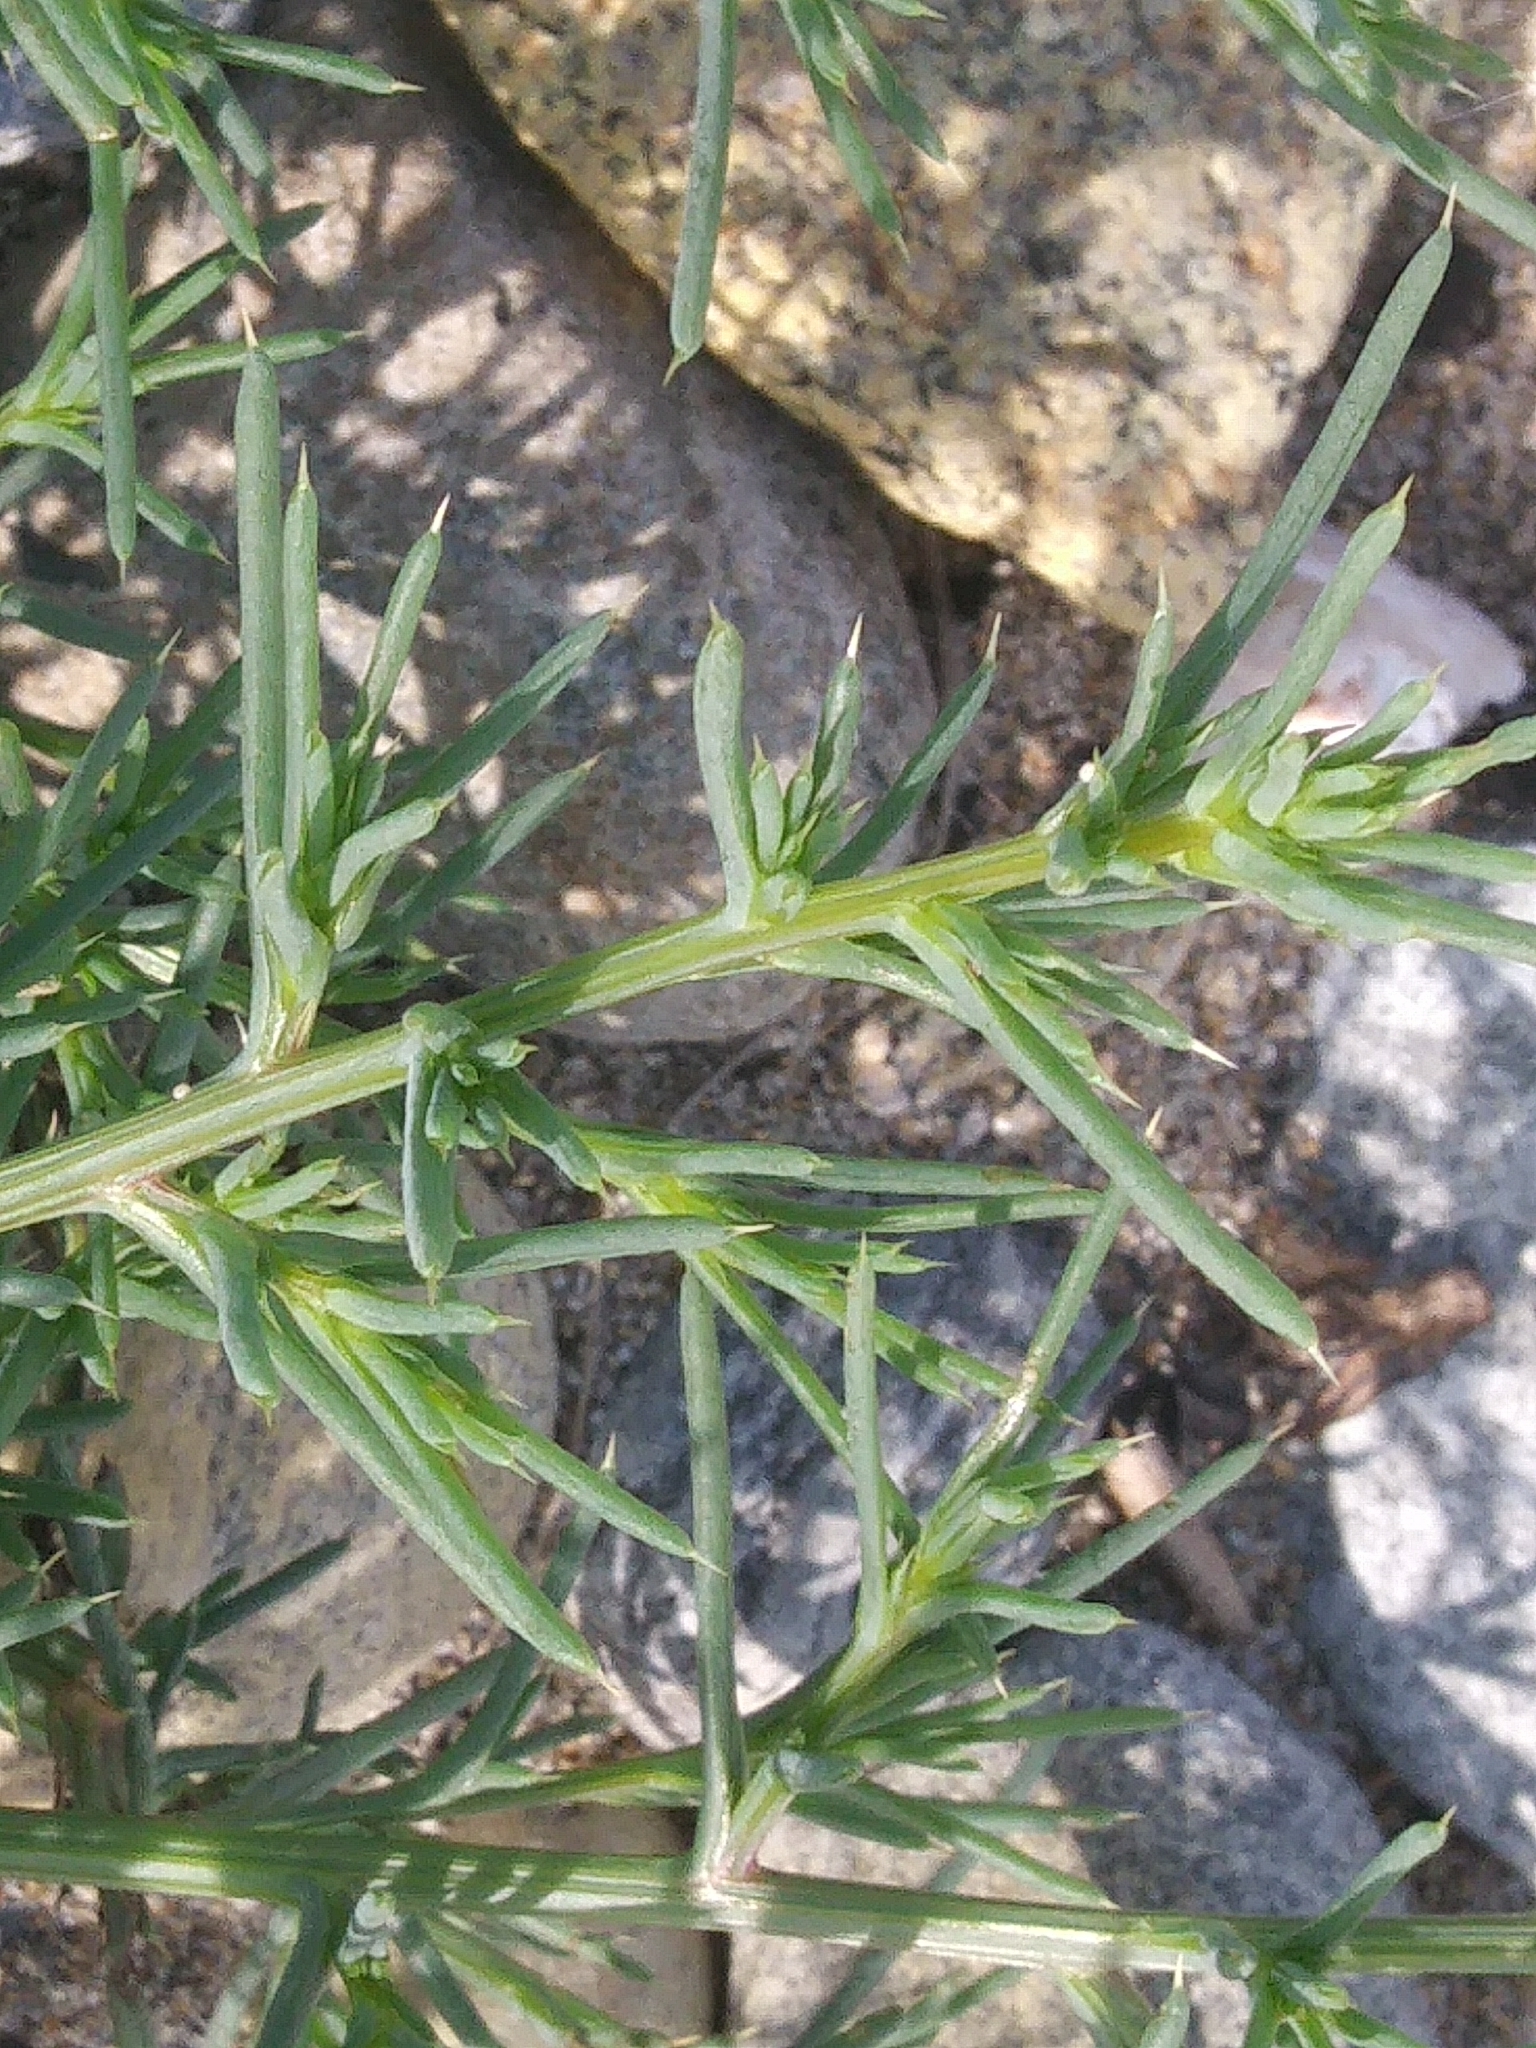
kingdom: Plantae
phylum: Tracheophyta
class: Magnoliopsida
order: Caryophyllales
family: Amaranthaceae
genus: Salsola
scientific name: Salsola kali
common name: Saltwort
